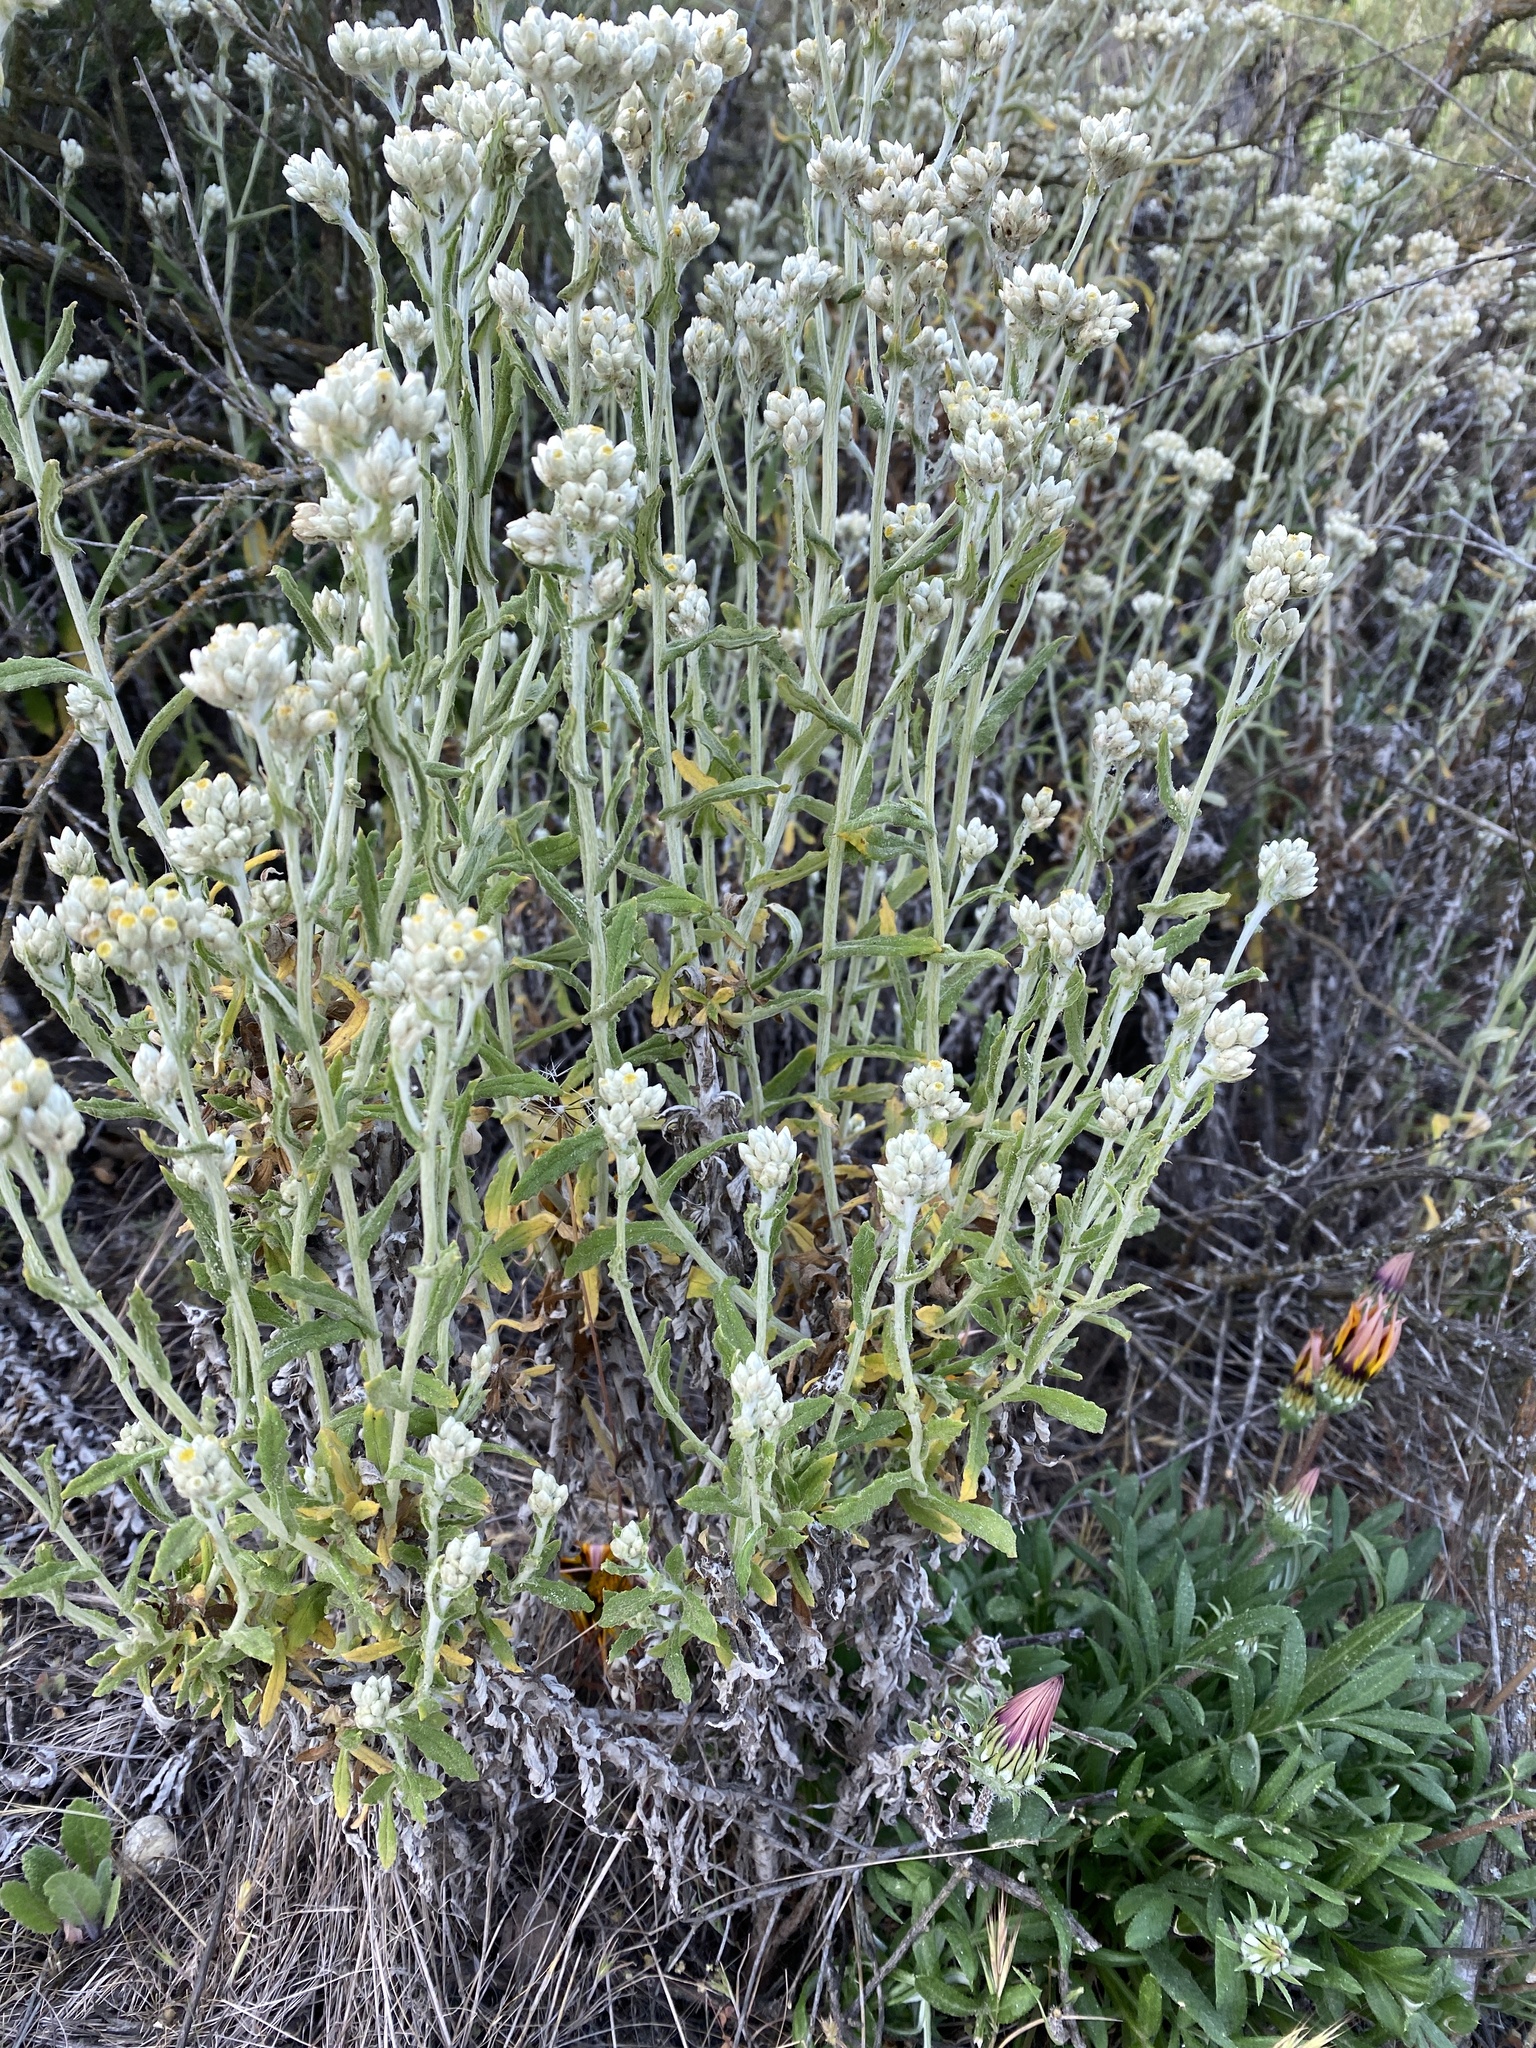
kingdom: Plantae
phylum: Tracheophyta
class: Magnoliopsida
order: Asterales
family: Asteraceae
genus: Pseudognaphalium
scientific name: Pseudognaphalium biolettii
